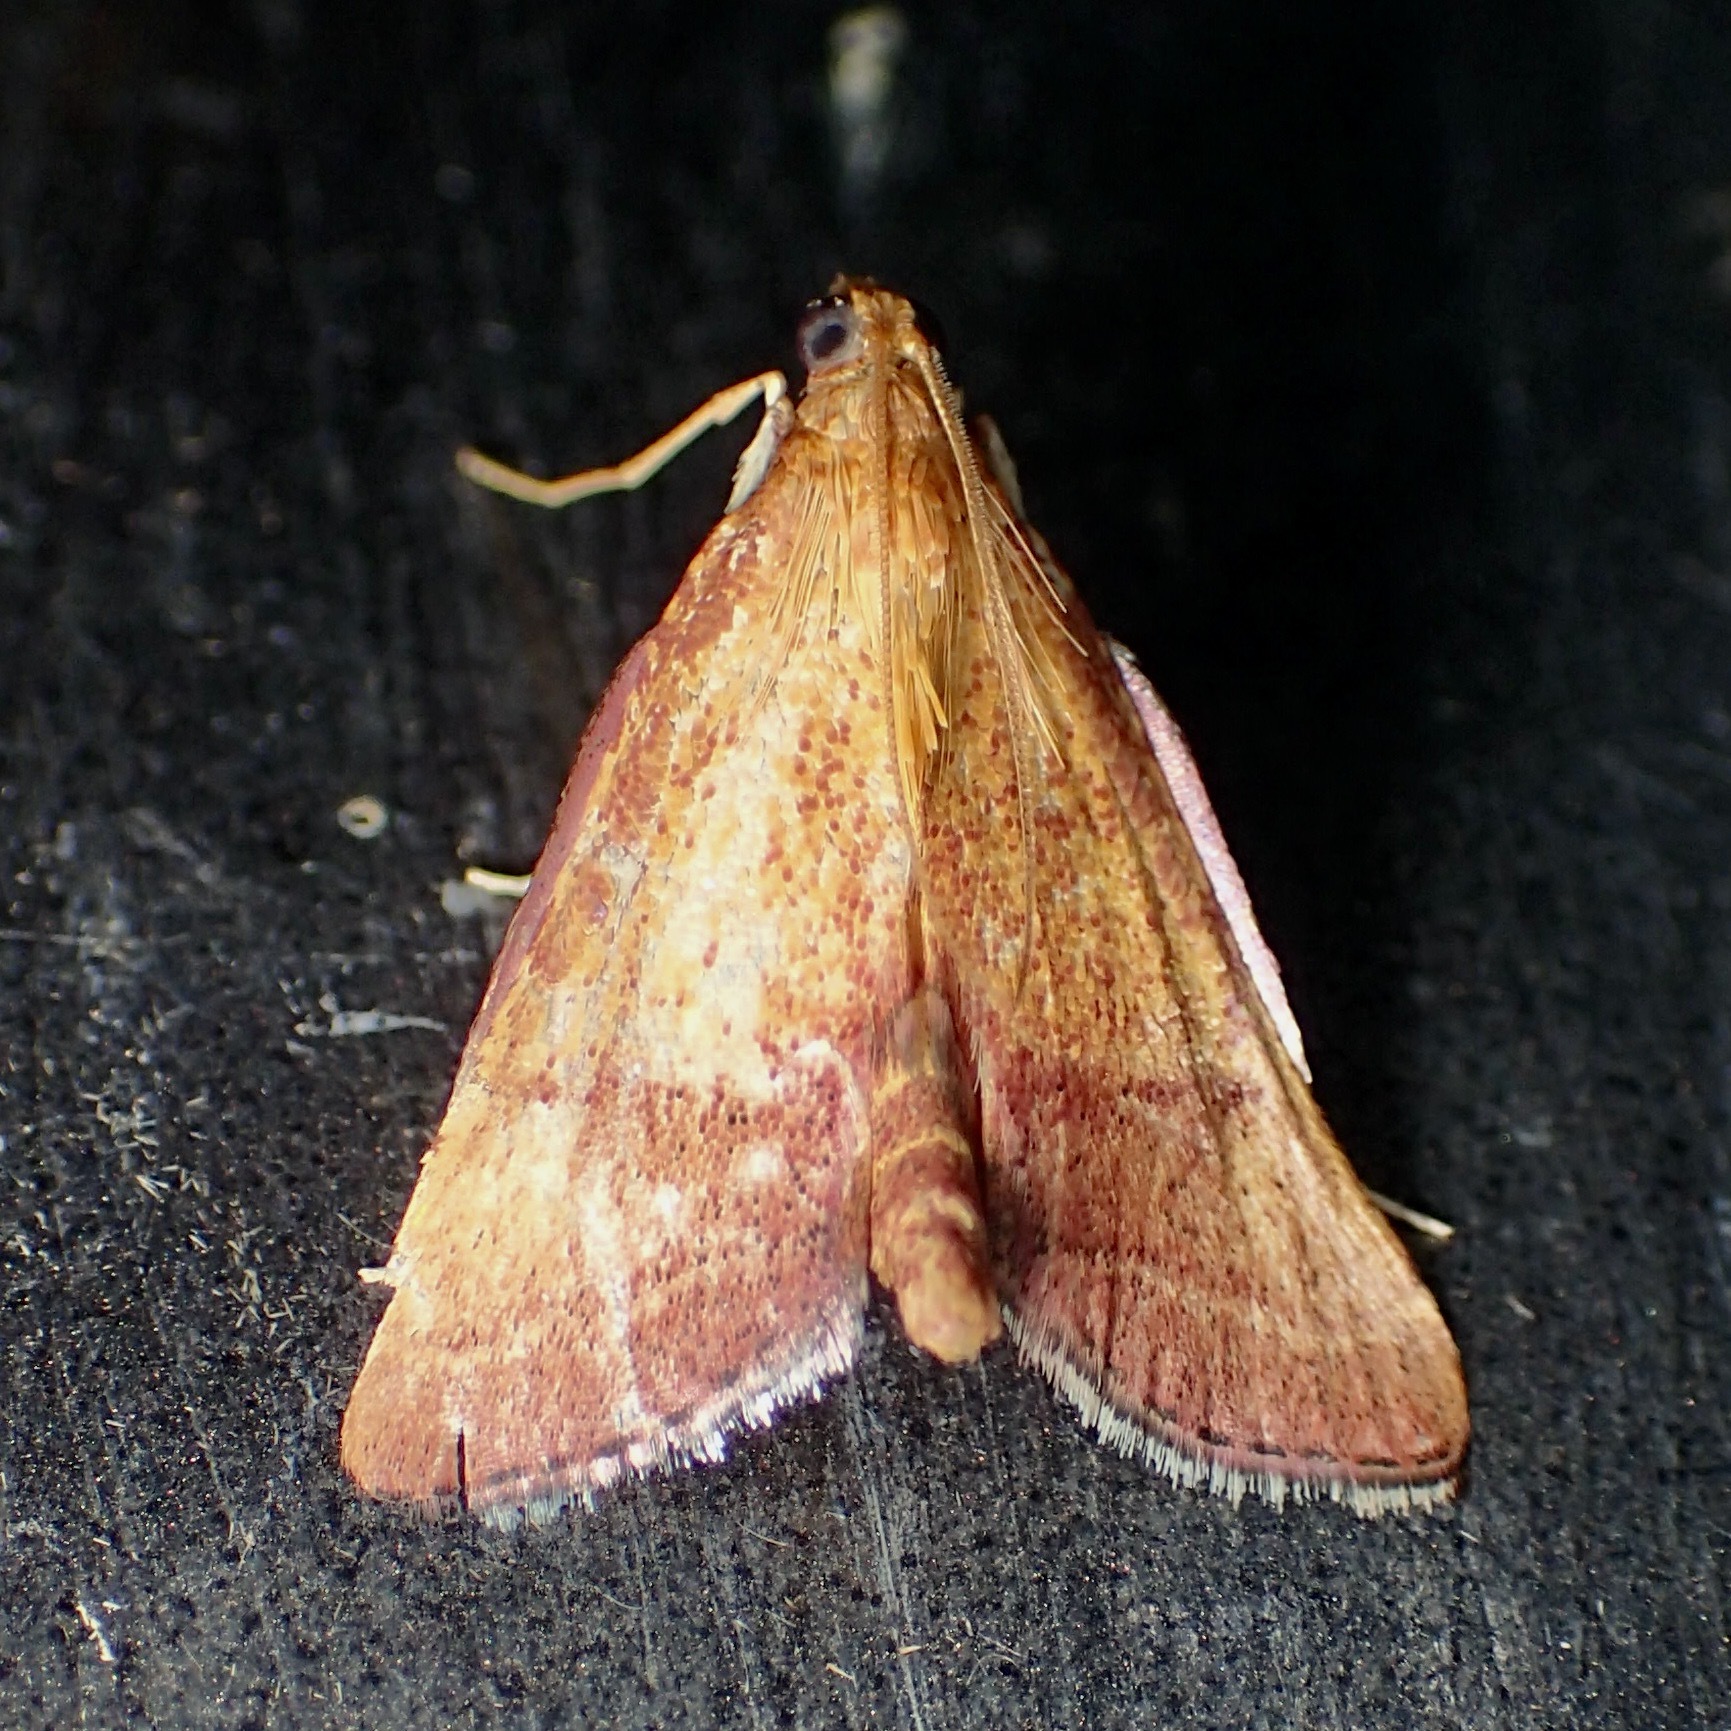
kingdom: Animalia
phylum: Arthropoda
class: Insecta
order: Lepidoptera
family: Pyralidae
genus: Endotricha
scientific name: Endotricha pyrosalis
